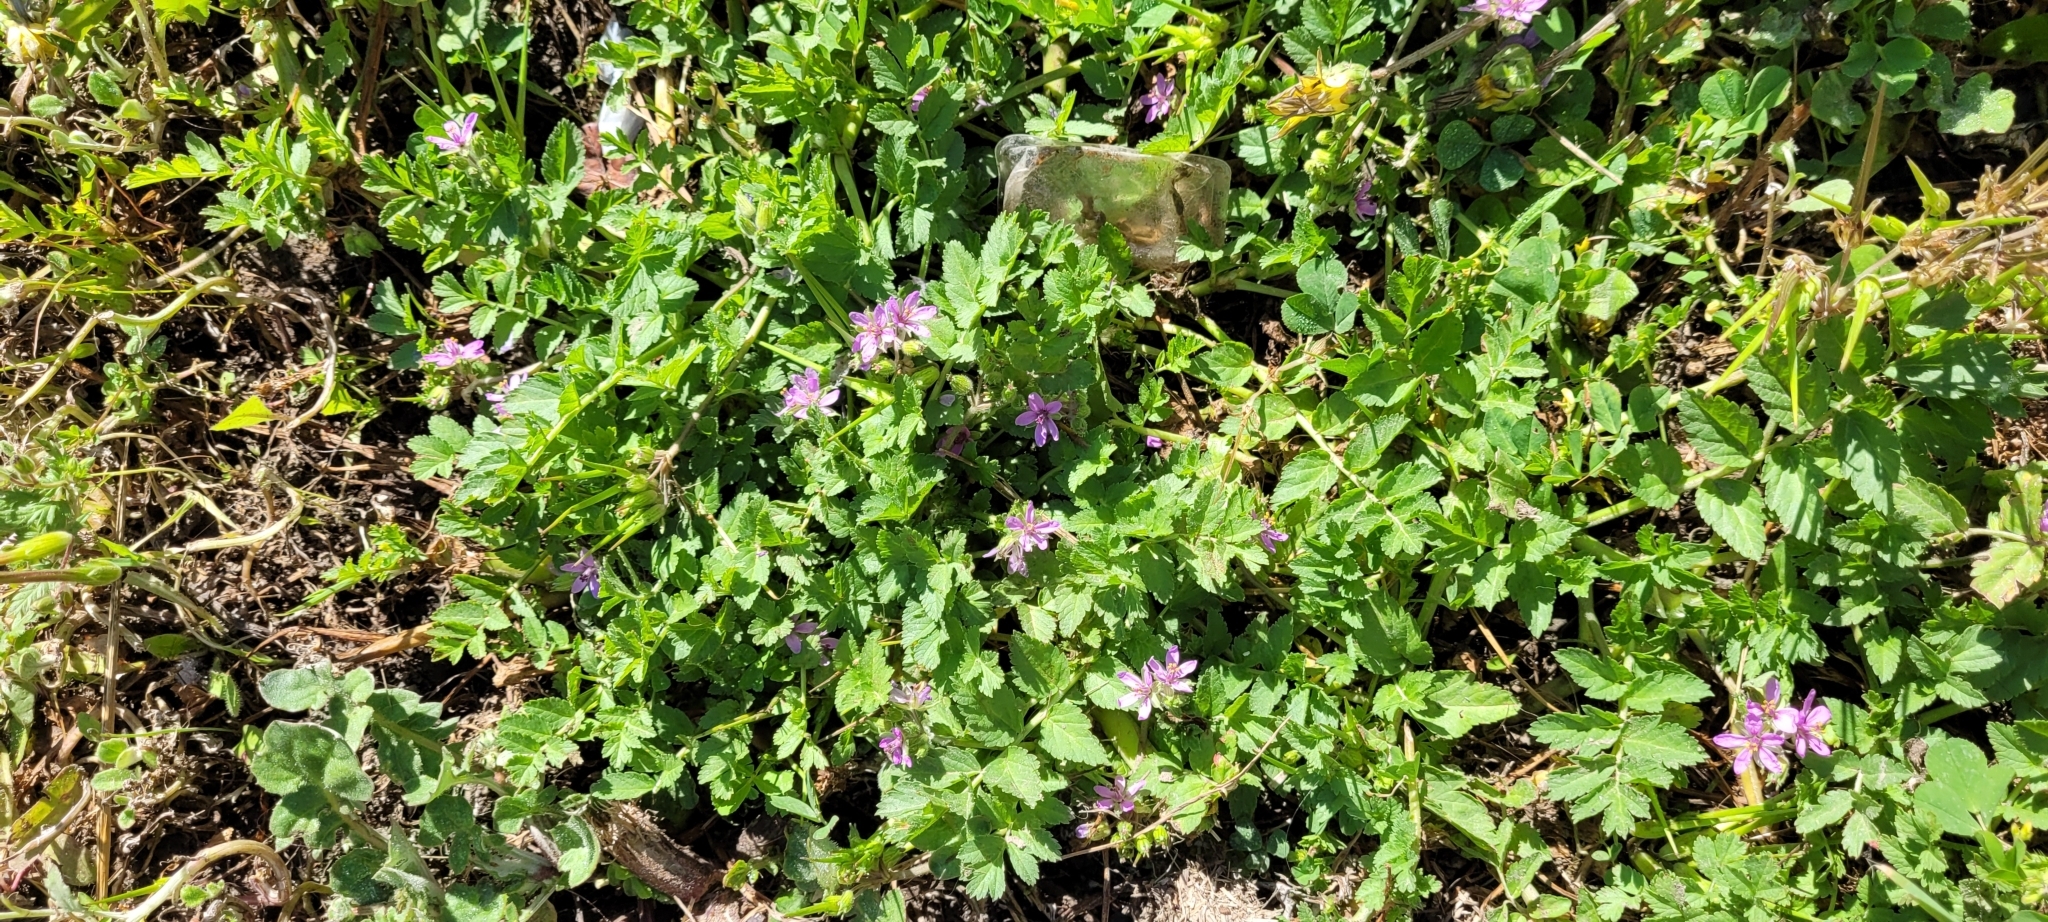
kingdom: Plantae
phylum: Tracheophyta
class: Magnoliopsida
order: Geraniales
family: Geraniaceae
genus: Erodium
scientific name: Erodium moschatum
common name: Musk stork's-bill
